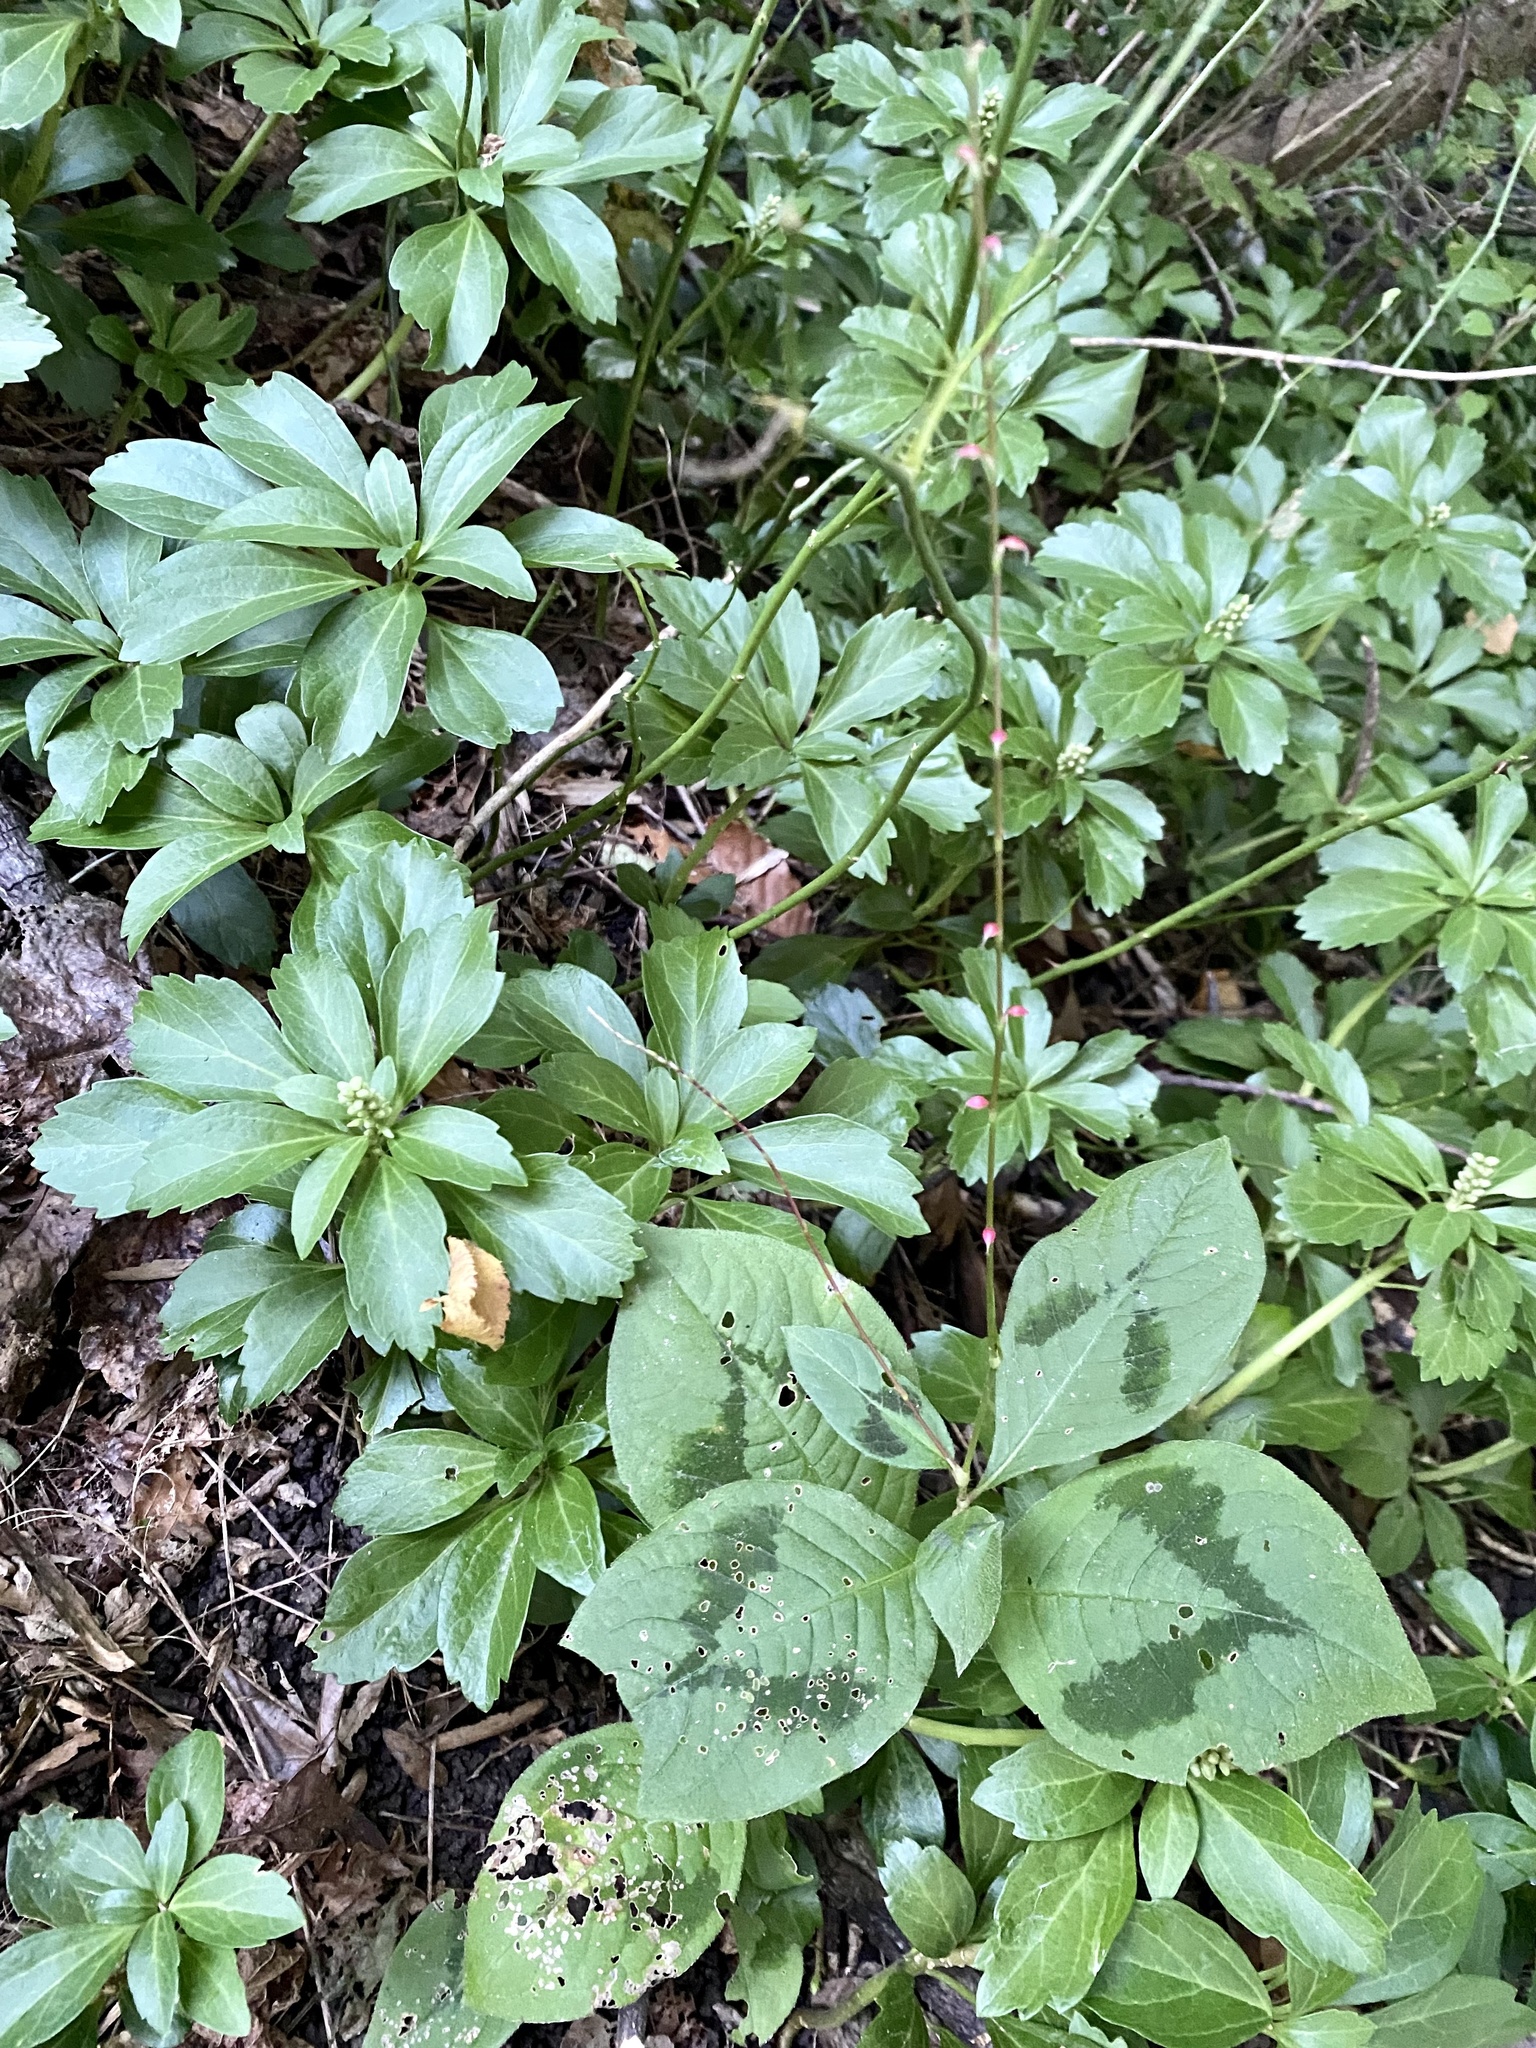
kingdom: Plantae
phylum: Tracheophyta
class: Magnoliopsida
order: Caryophyllales
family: Polygonaceae
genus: Persicaria
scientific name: Persicaria filiformis
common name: Asian jumpseed
